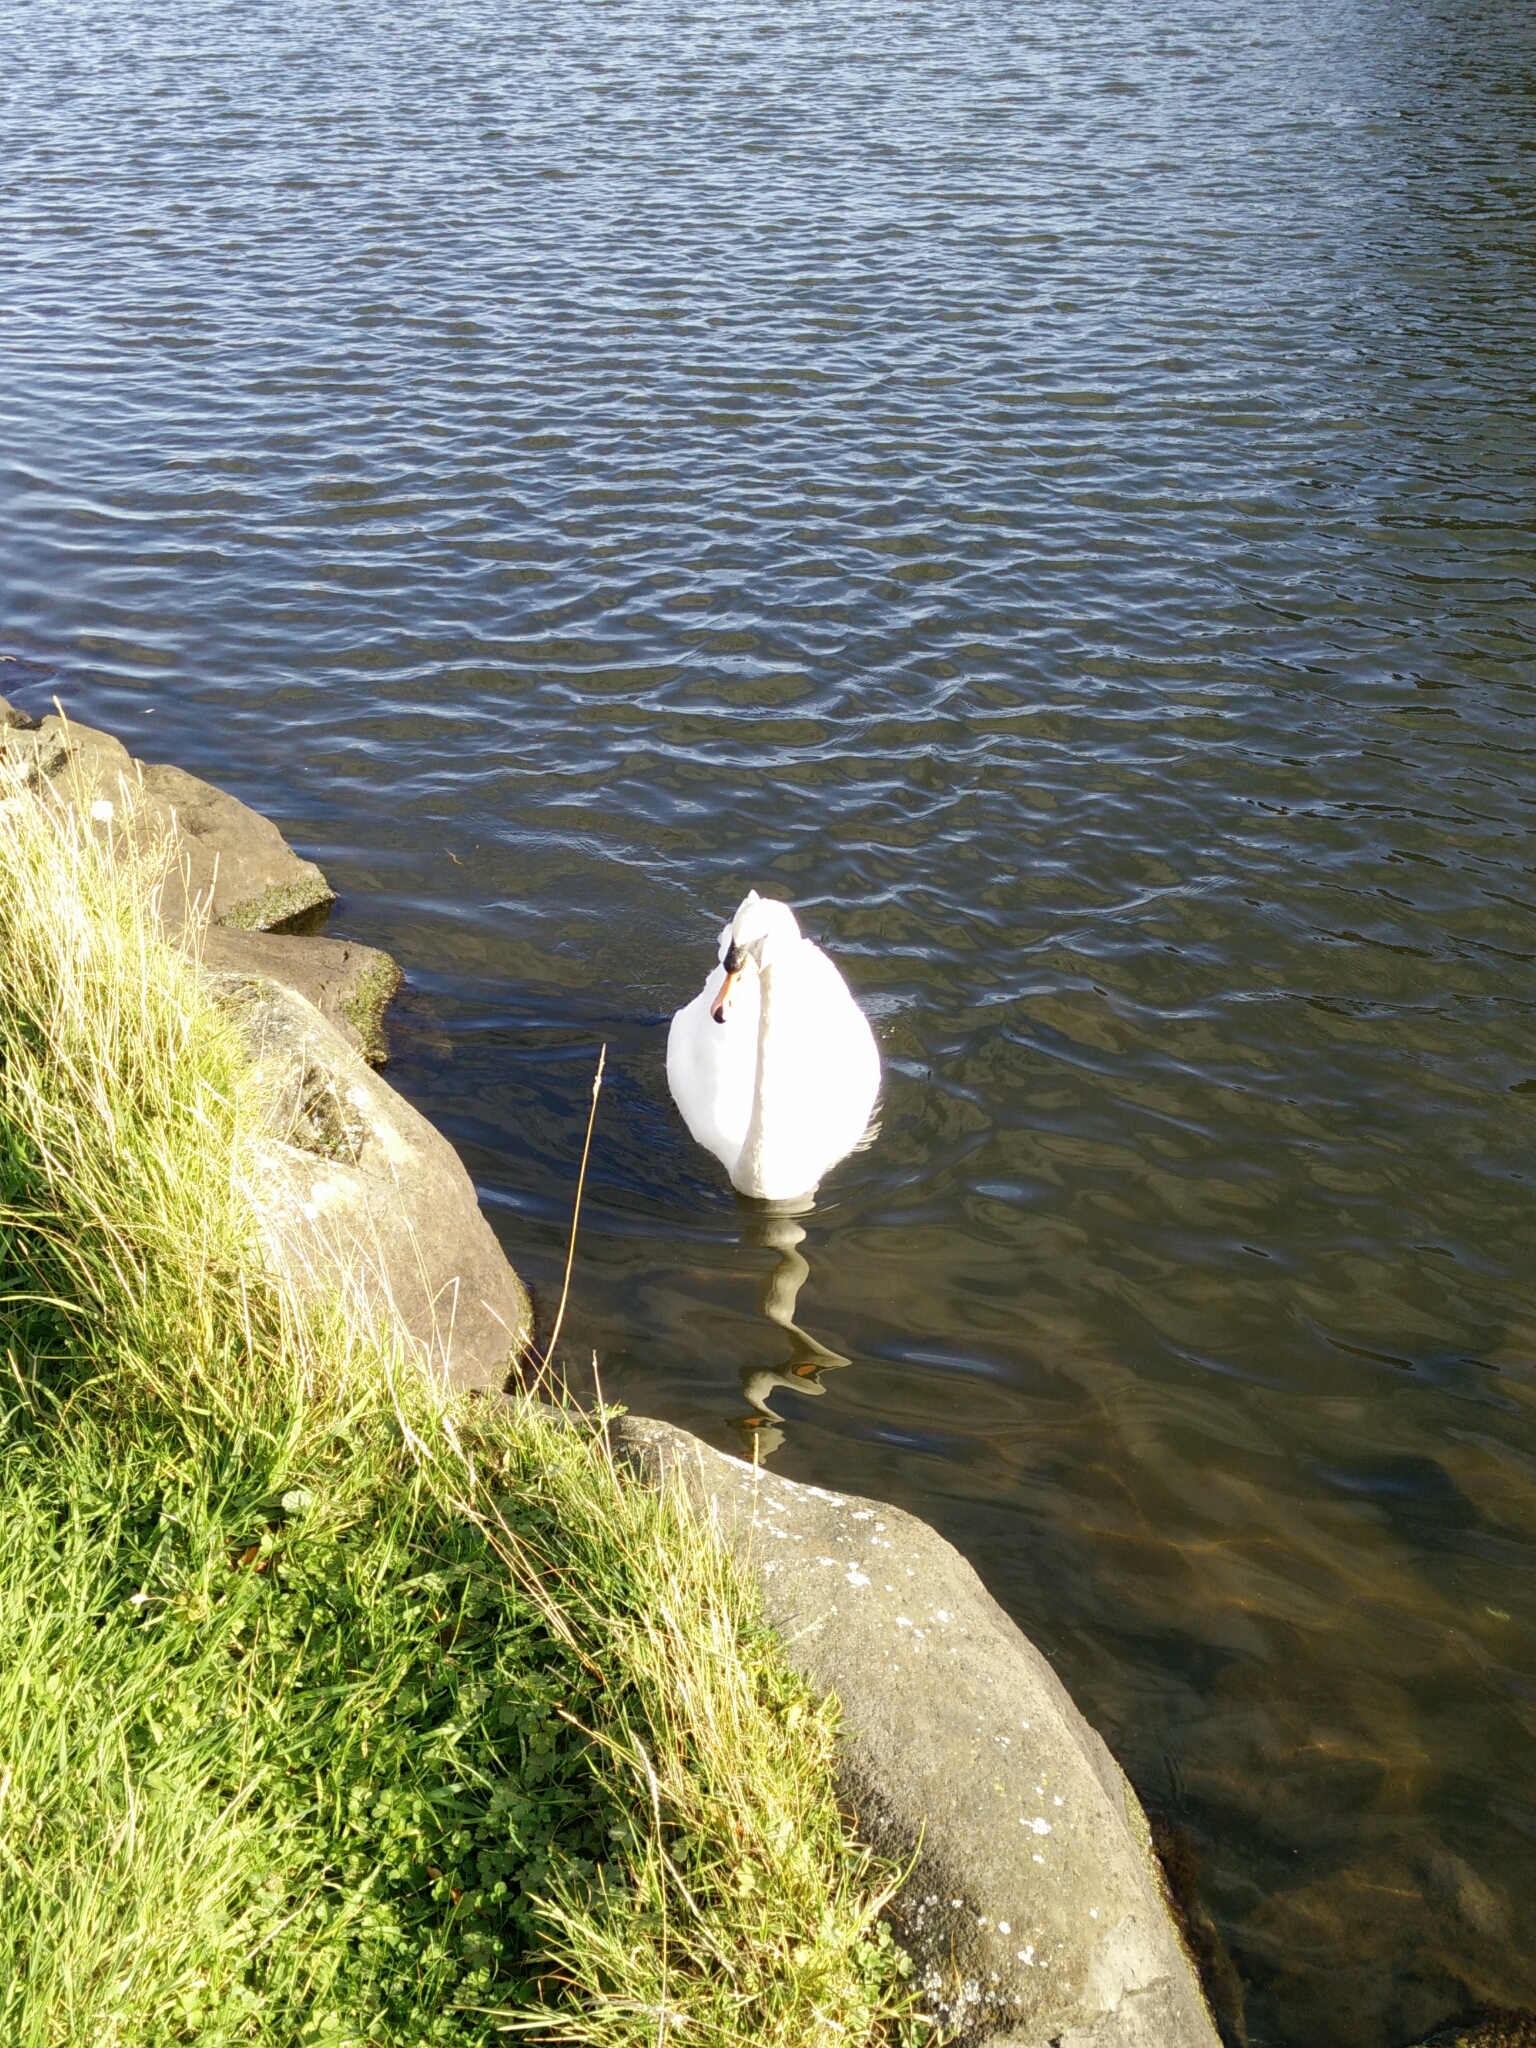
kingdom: Animalia
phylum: Chordata
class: Aves
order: Anseriformes
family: Anatidae
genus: Cygnus
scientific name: Cygnus olor
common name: Mute swan
